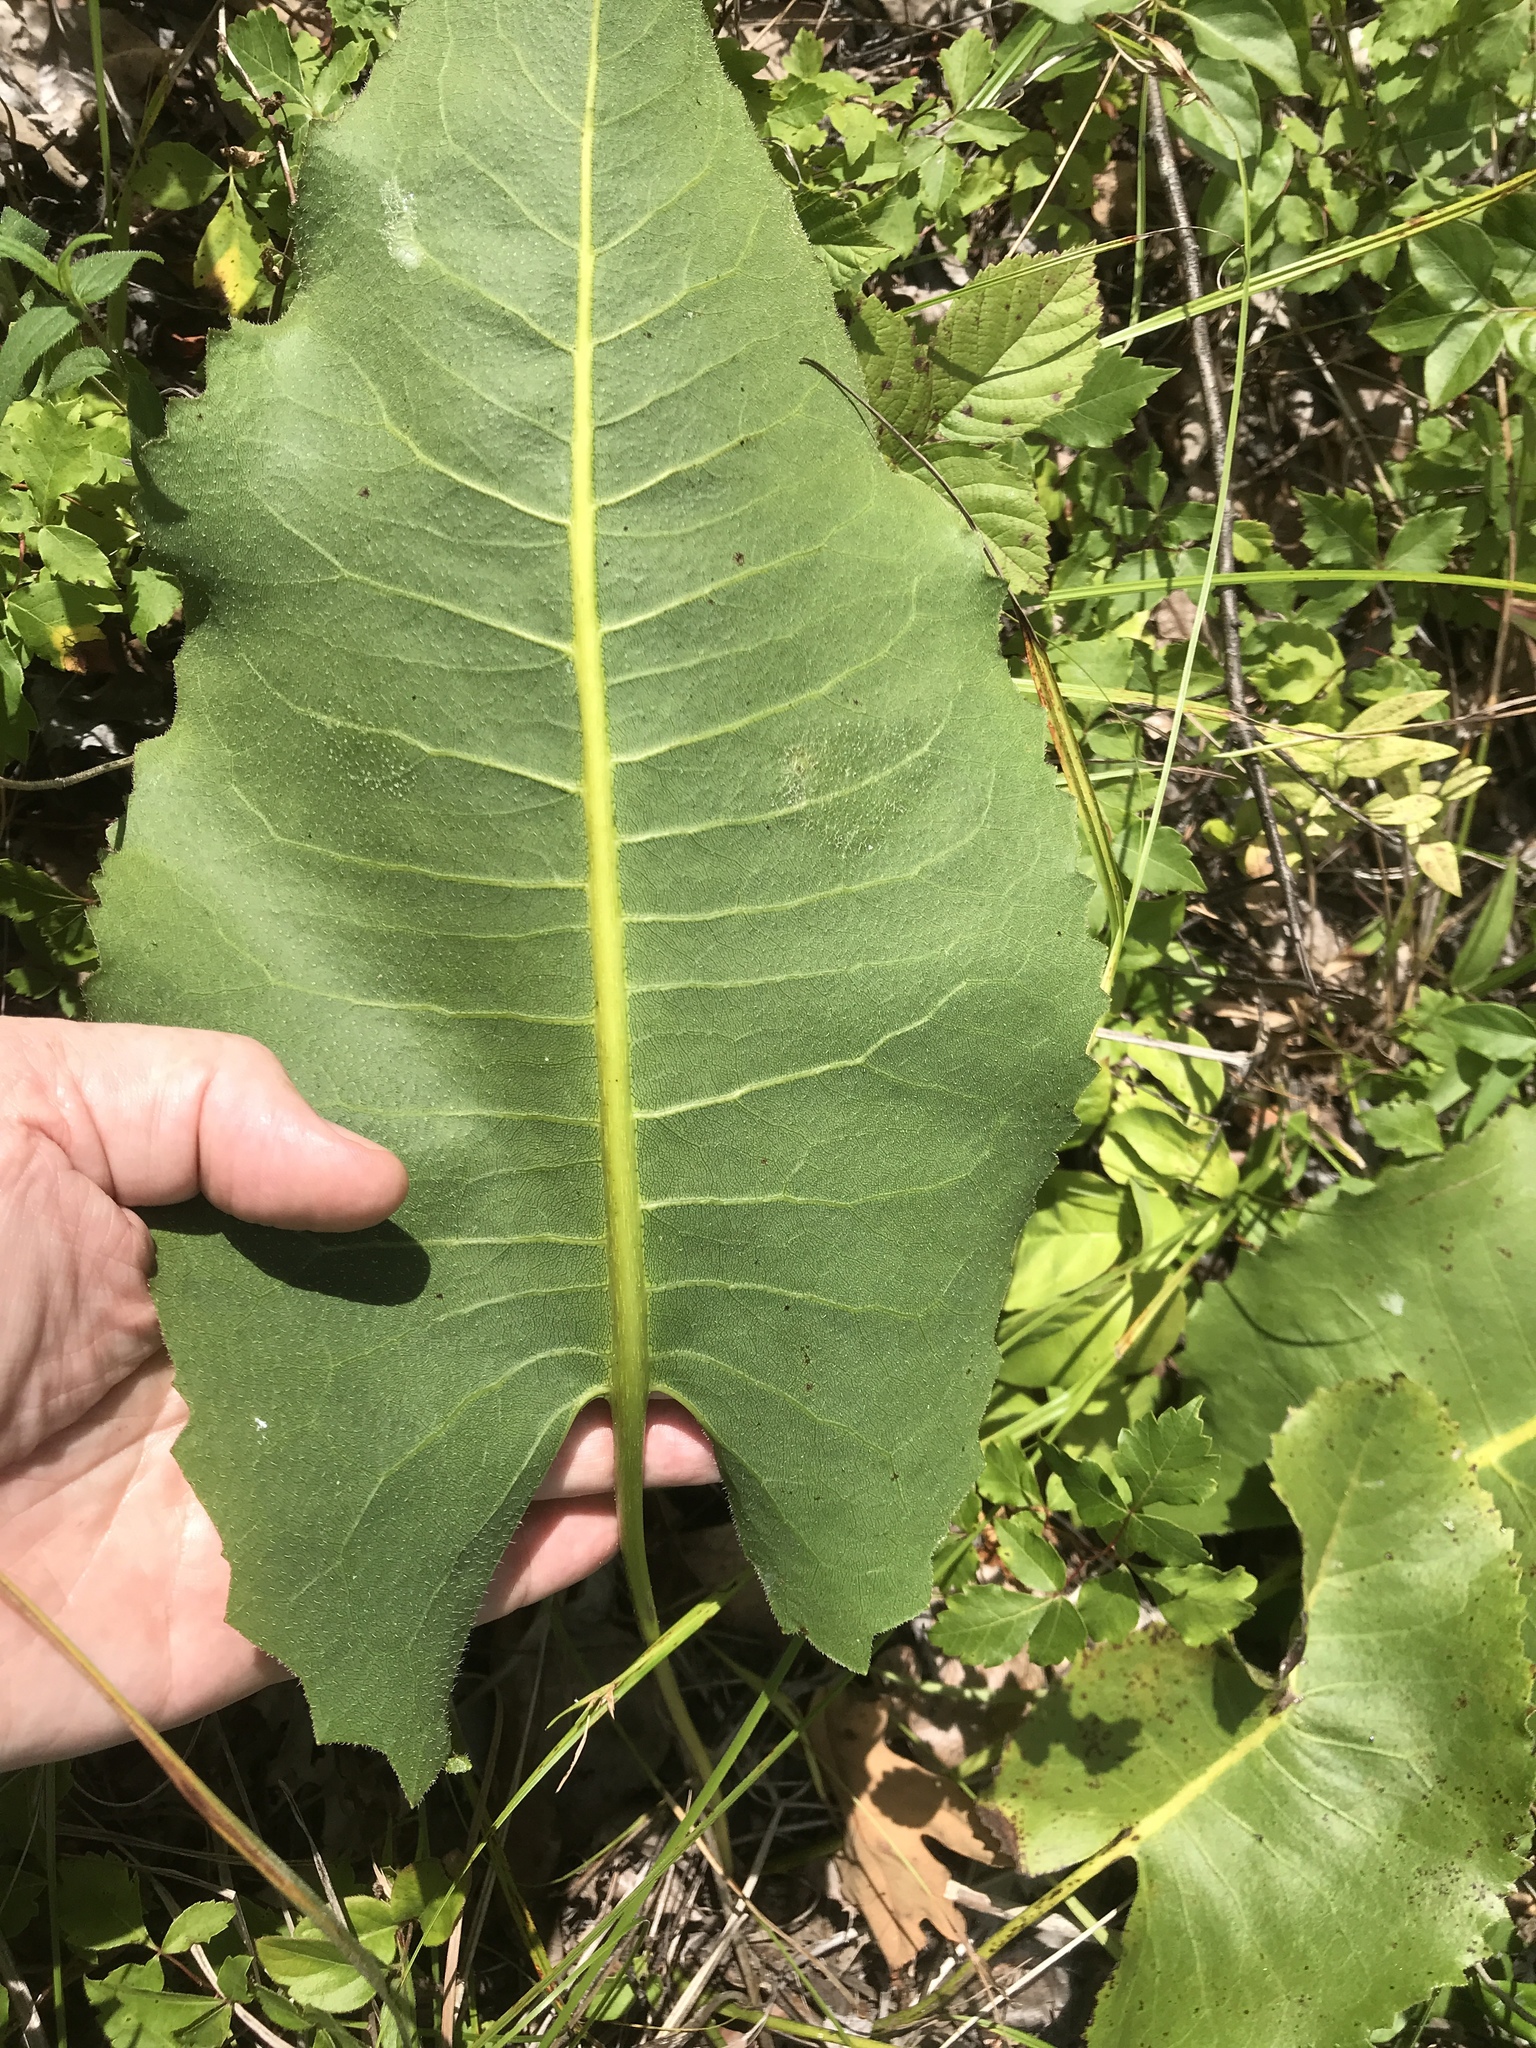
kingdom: Plantae
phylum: Tracheophyta
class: Magnoliopsida
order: Asterales
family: Asteraceae
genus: Silphium
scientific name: Silphium terebinthinaceum
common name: Basal-leaf rosinweed
